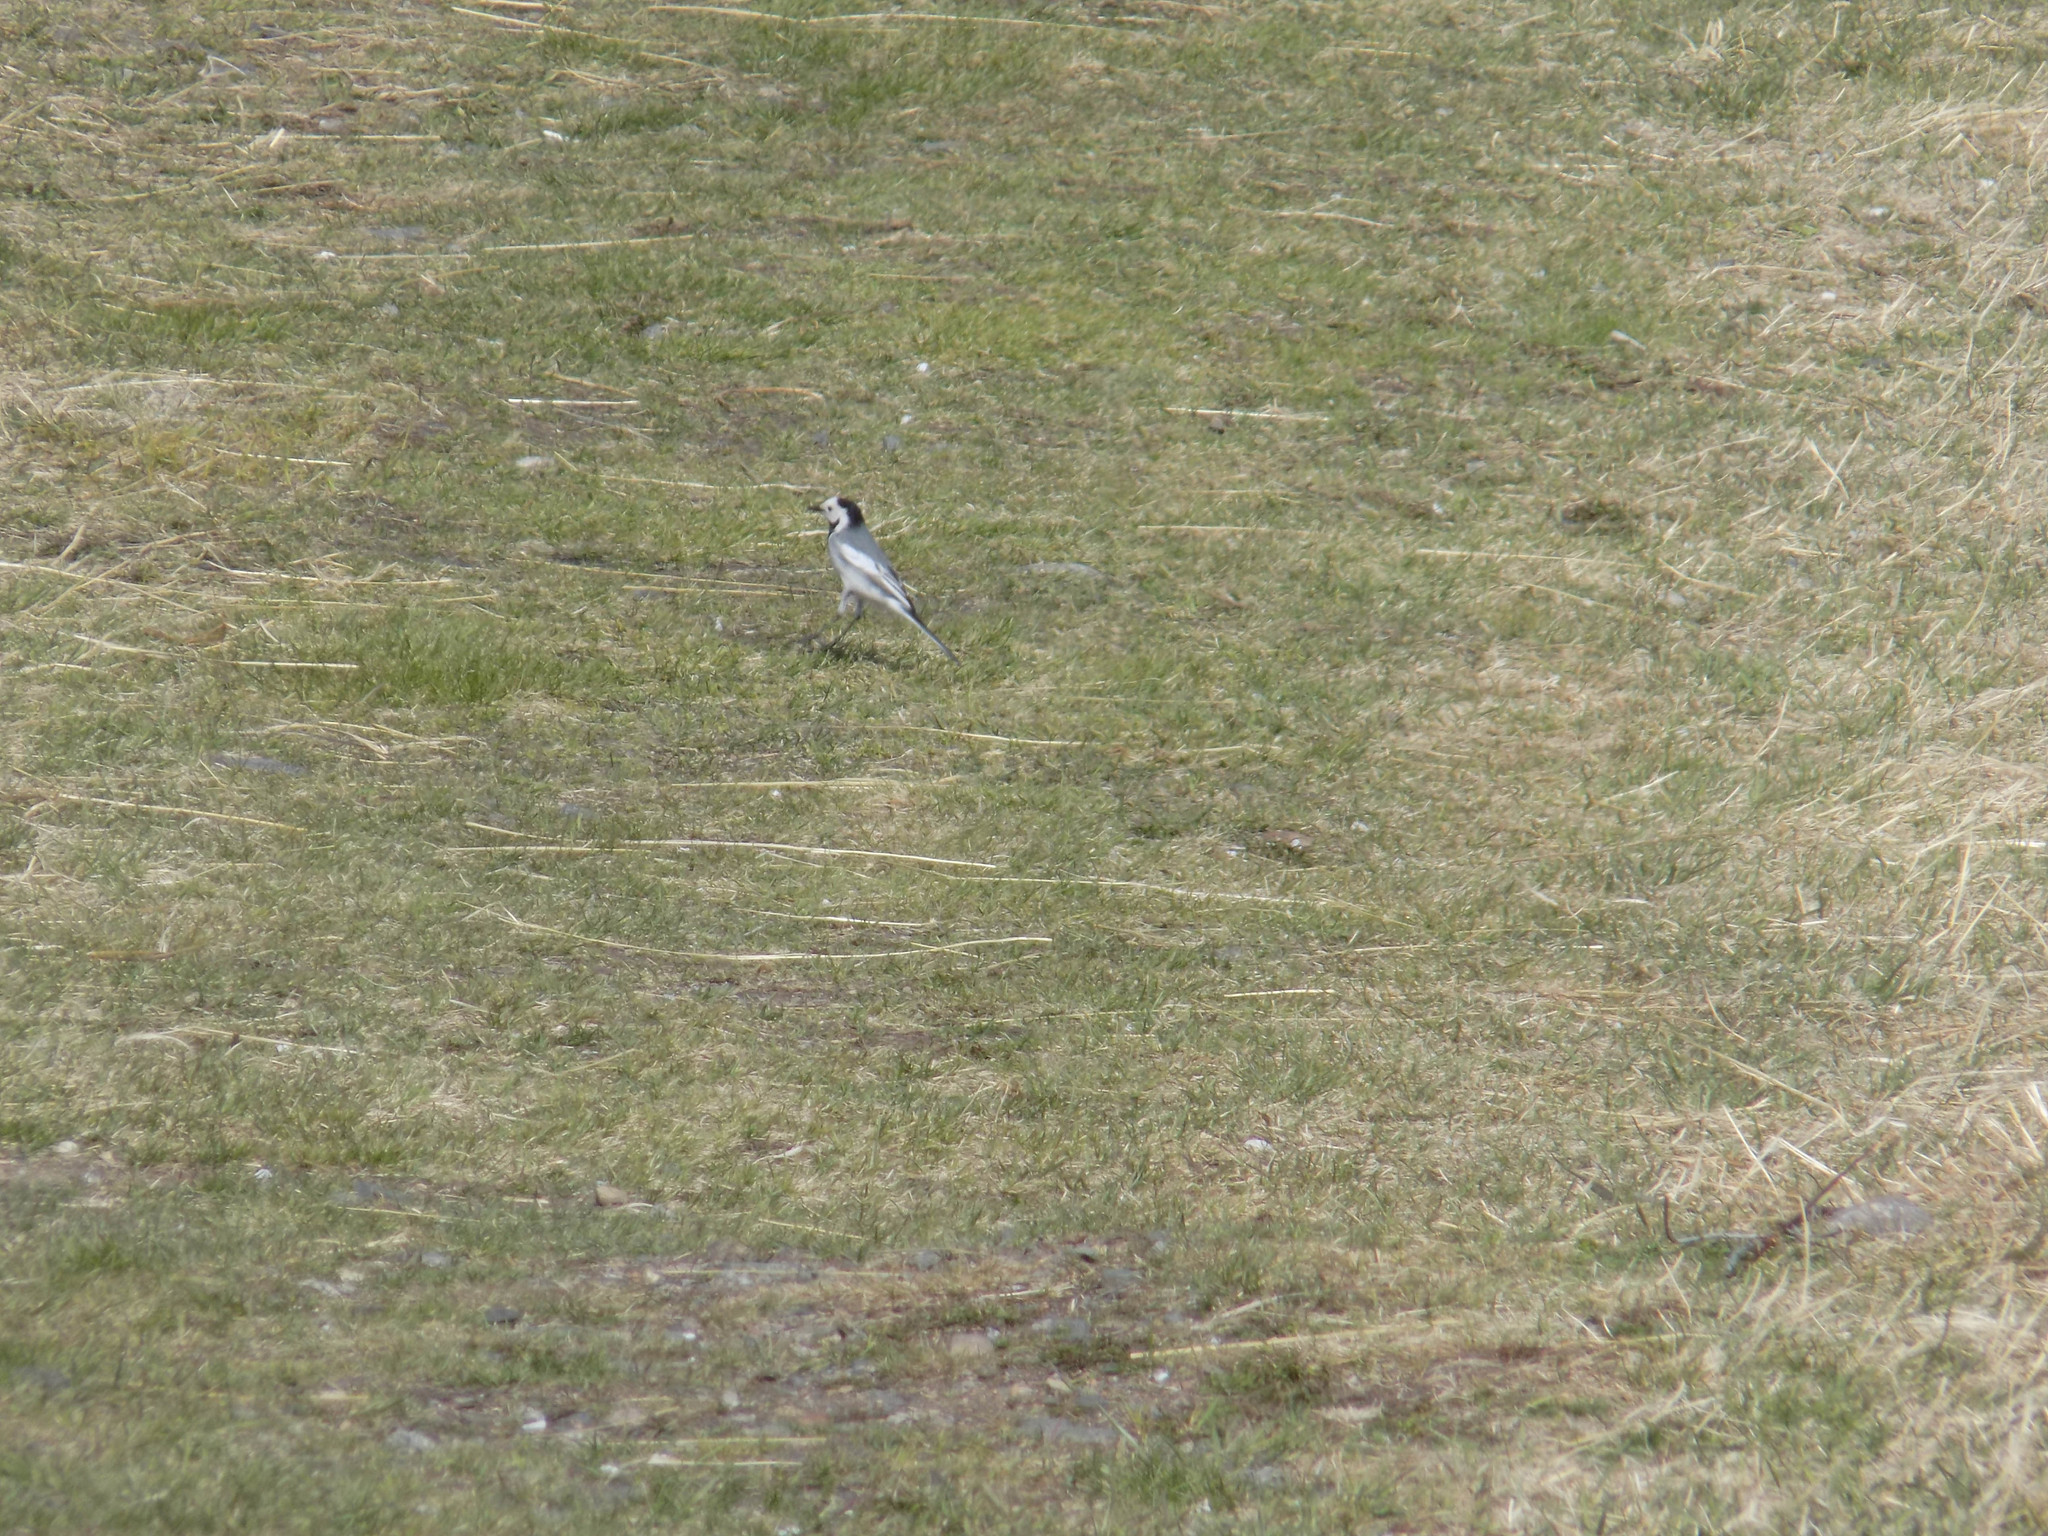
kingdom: Animalia
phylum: Chordata
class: Aves
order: Passeriformes
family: Motacillidae
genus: Motacilla
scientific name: Motacilla alba
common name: White wagtail
